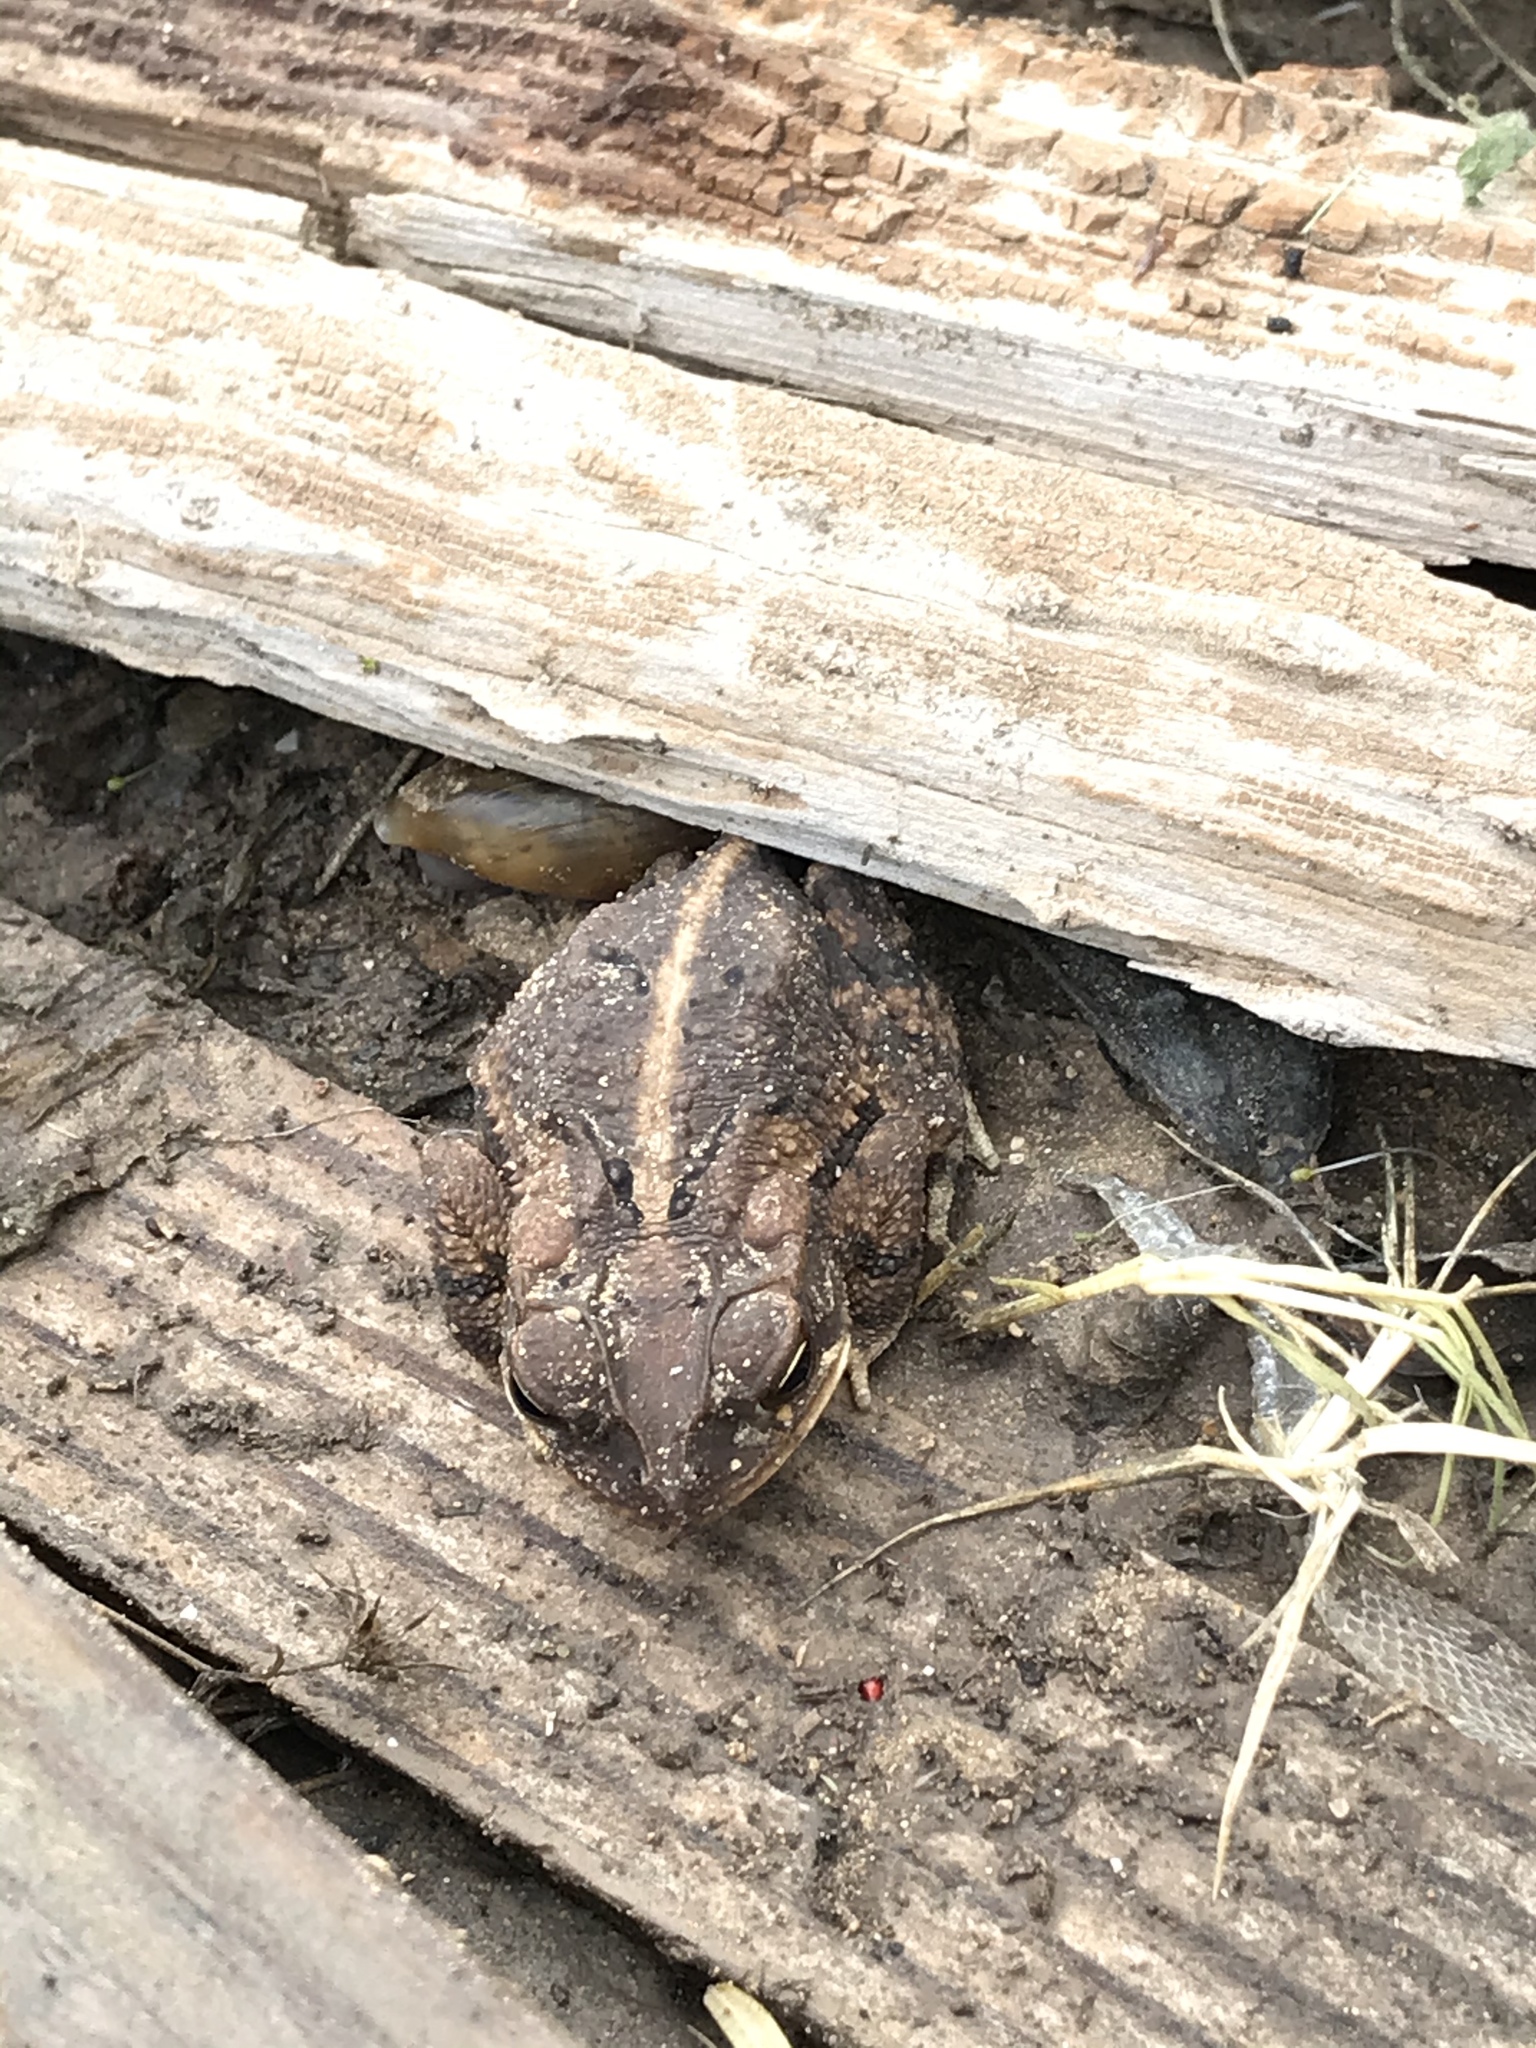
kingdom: Animalia
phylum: Chordata
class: Amphibia
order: Anura
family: Bufonidae
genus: Incilius
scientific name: Incilius nebulifer
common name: Gulf coast toad
